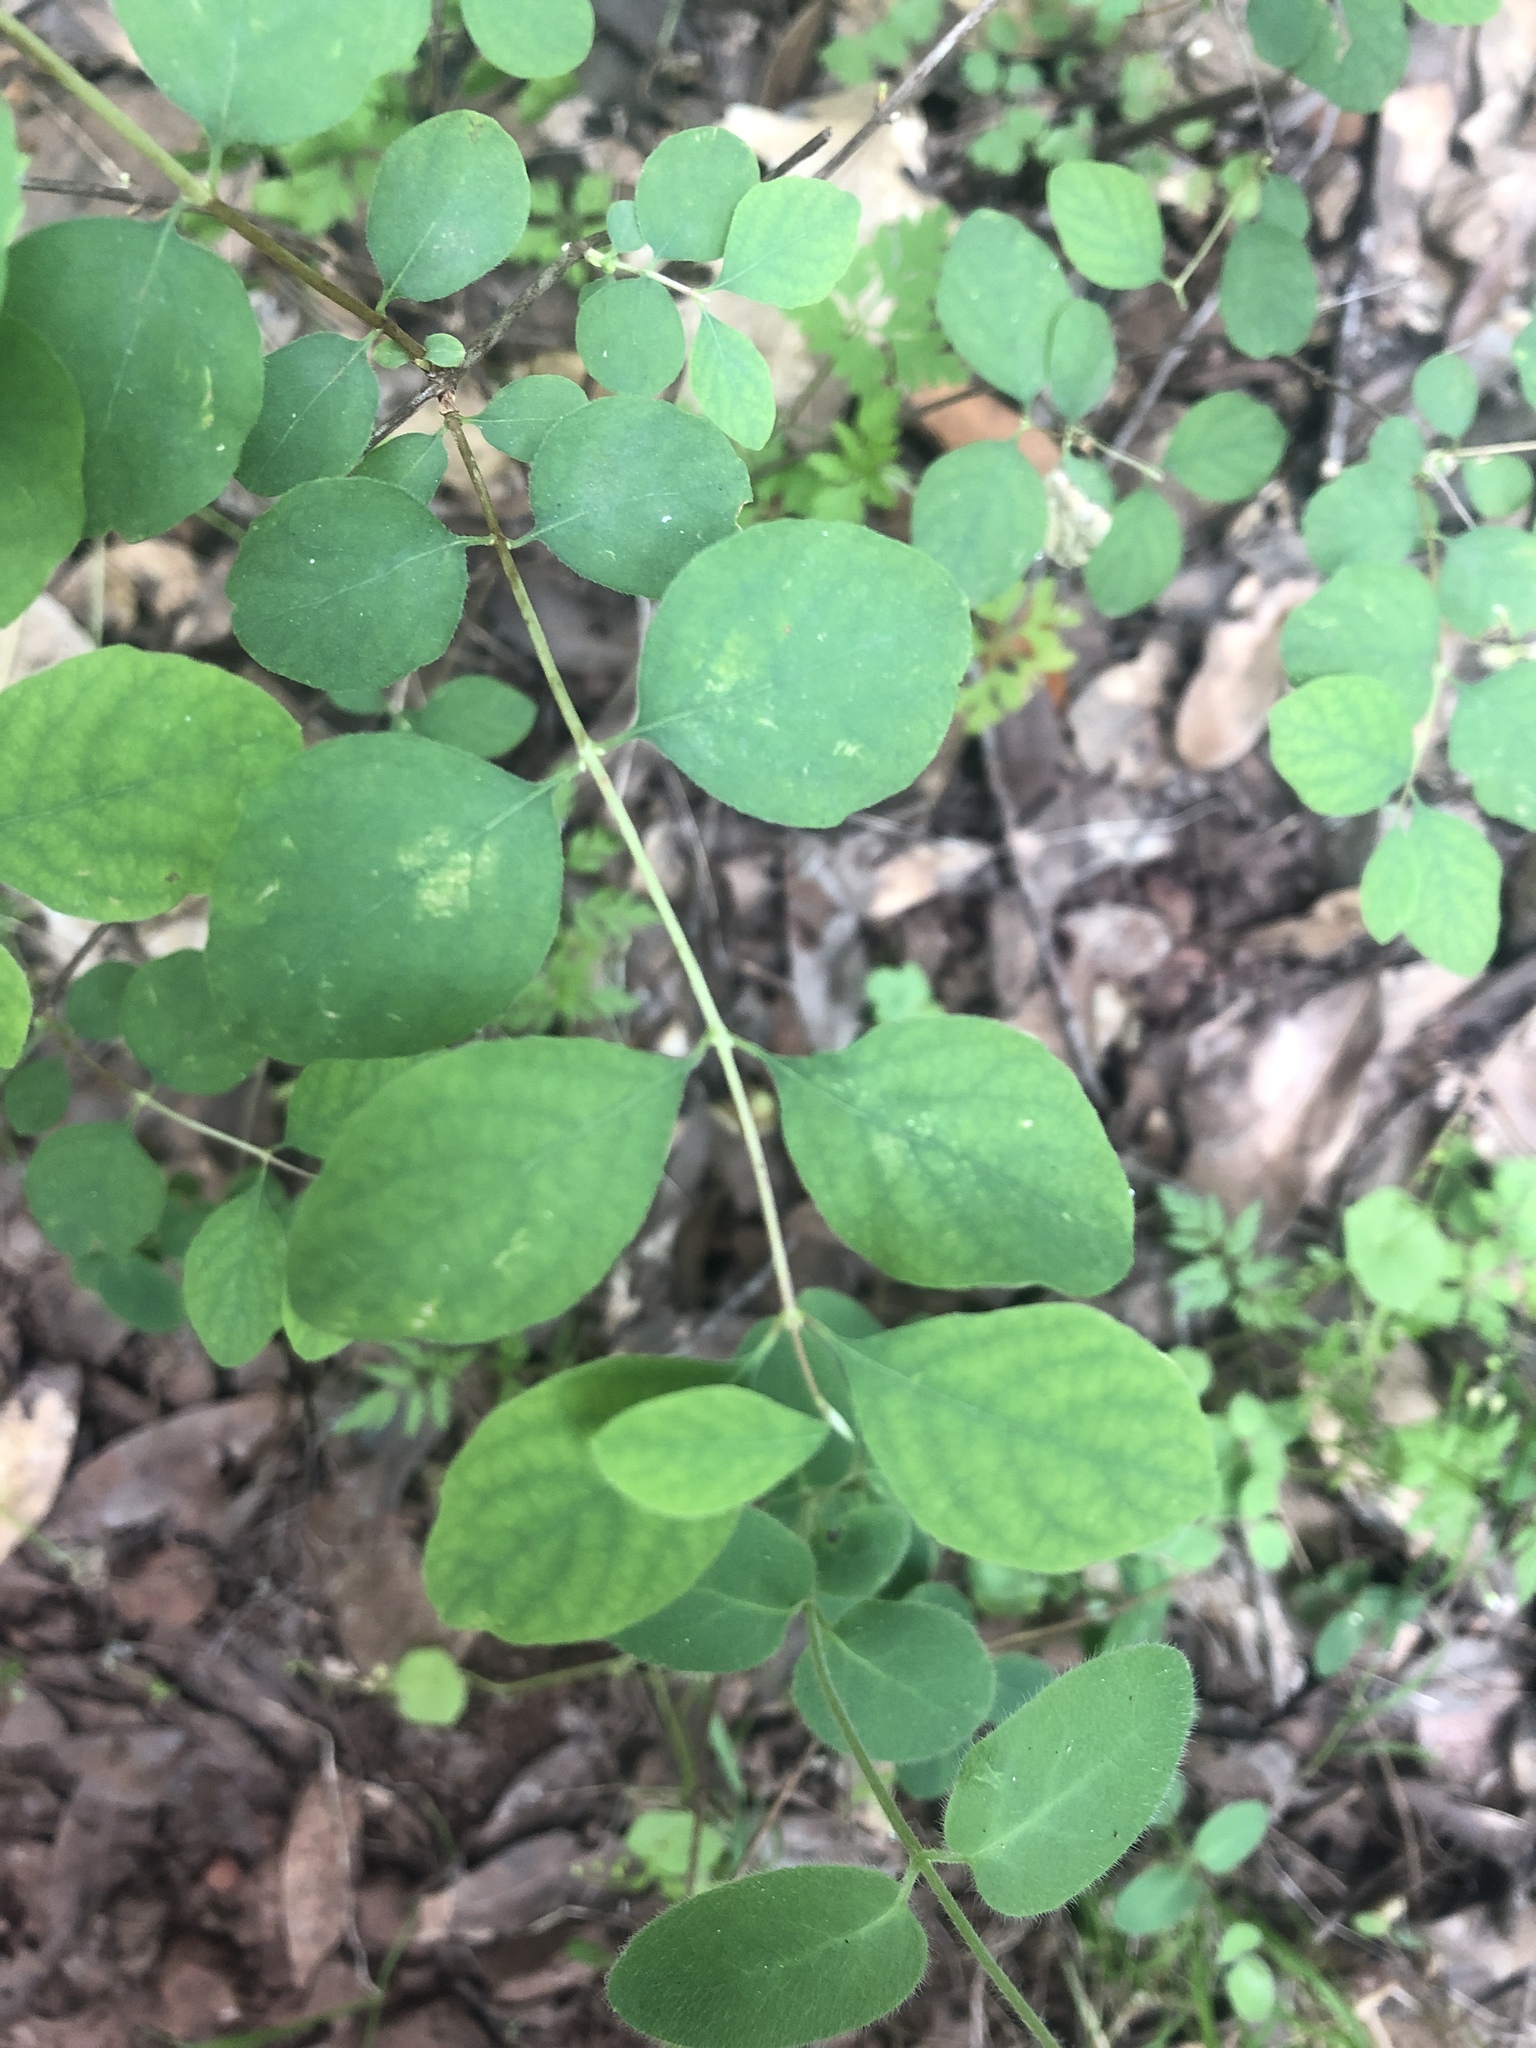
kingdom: Plantae
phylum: Tracheophyta
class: Magnoliopsida
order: Dipsacales
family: Caprifoliaceae
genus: Symphoricarpos
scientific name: Symphoricarpos albus
